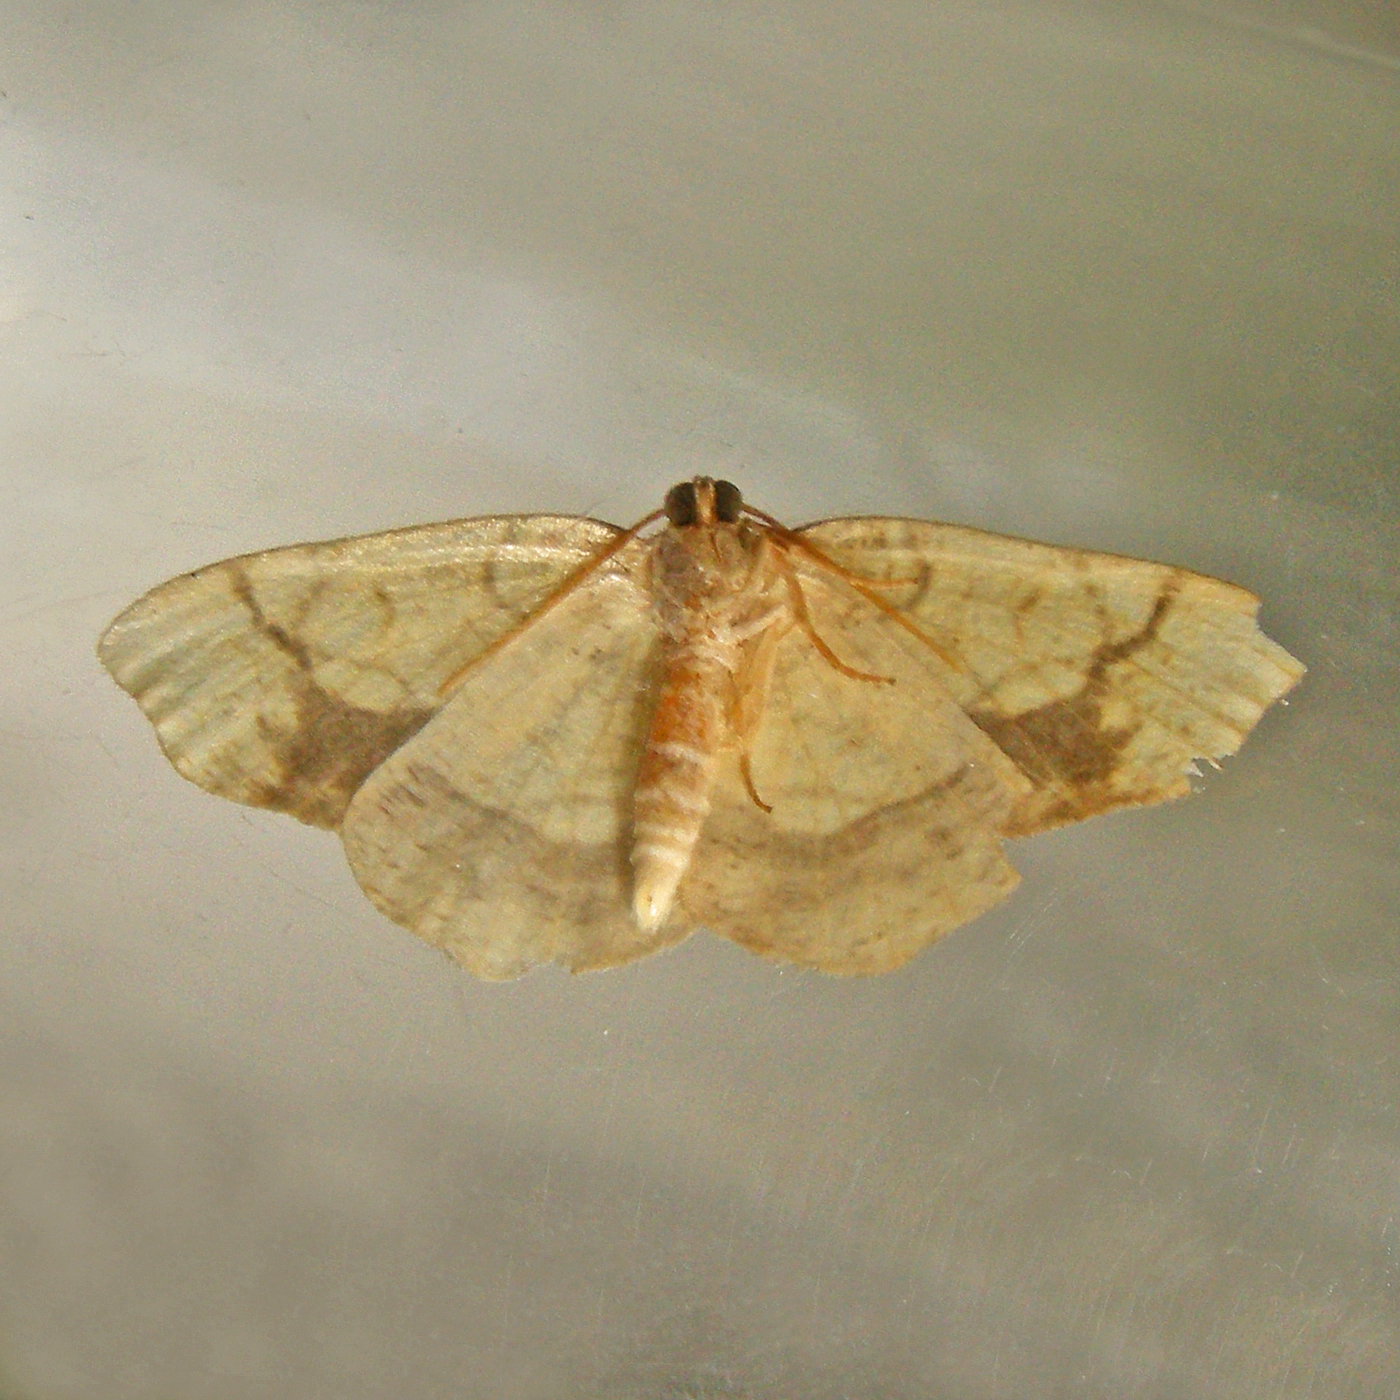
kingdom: Animalia
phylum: Arthropoda
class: Insecta
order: Lepidoptera
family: Geometridae
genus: Nematocampa
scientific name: Nematocampa resistaria
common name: Horned spanworm moth
